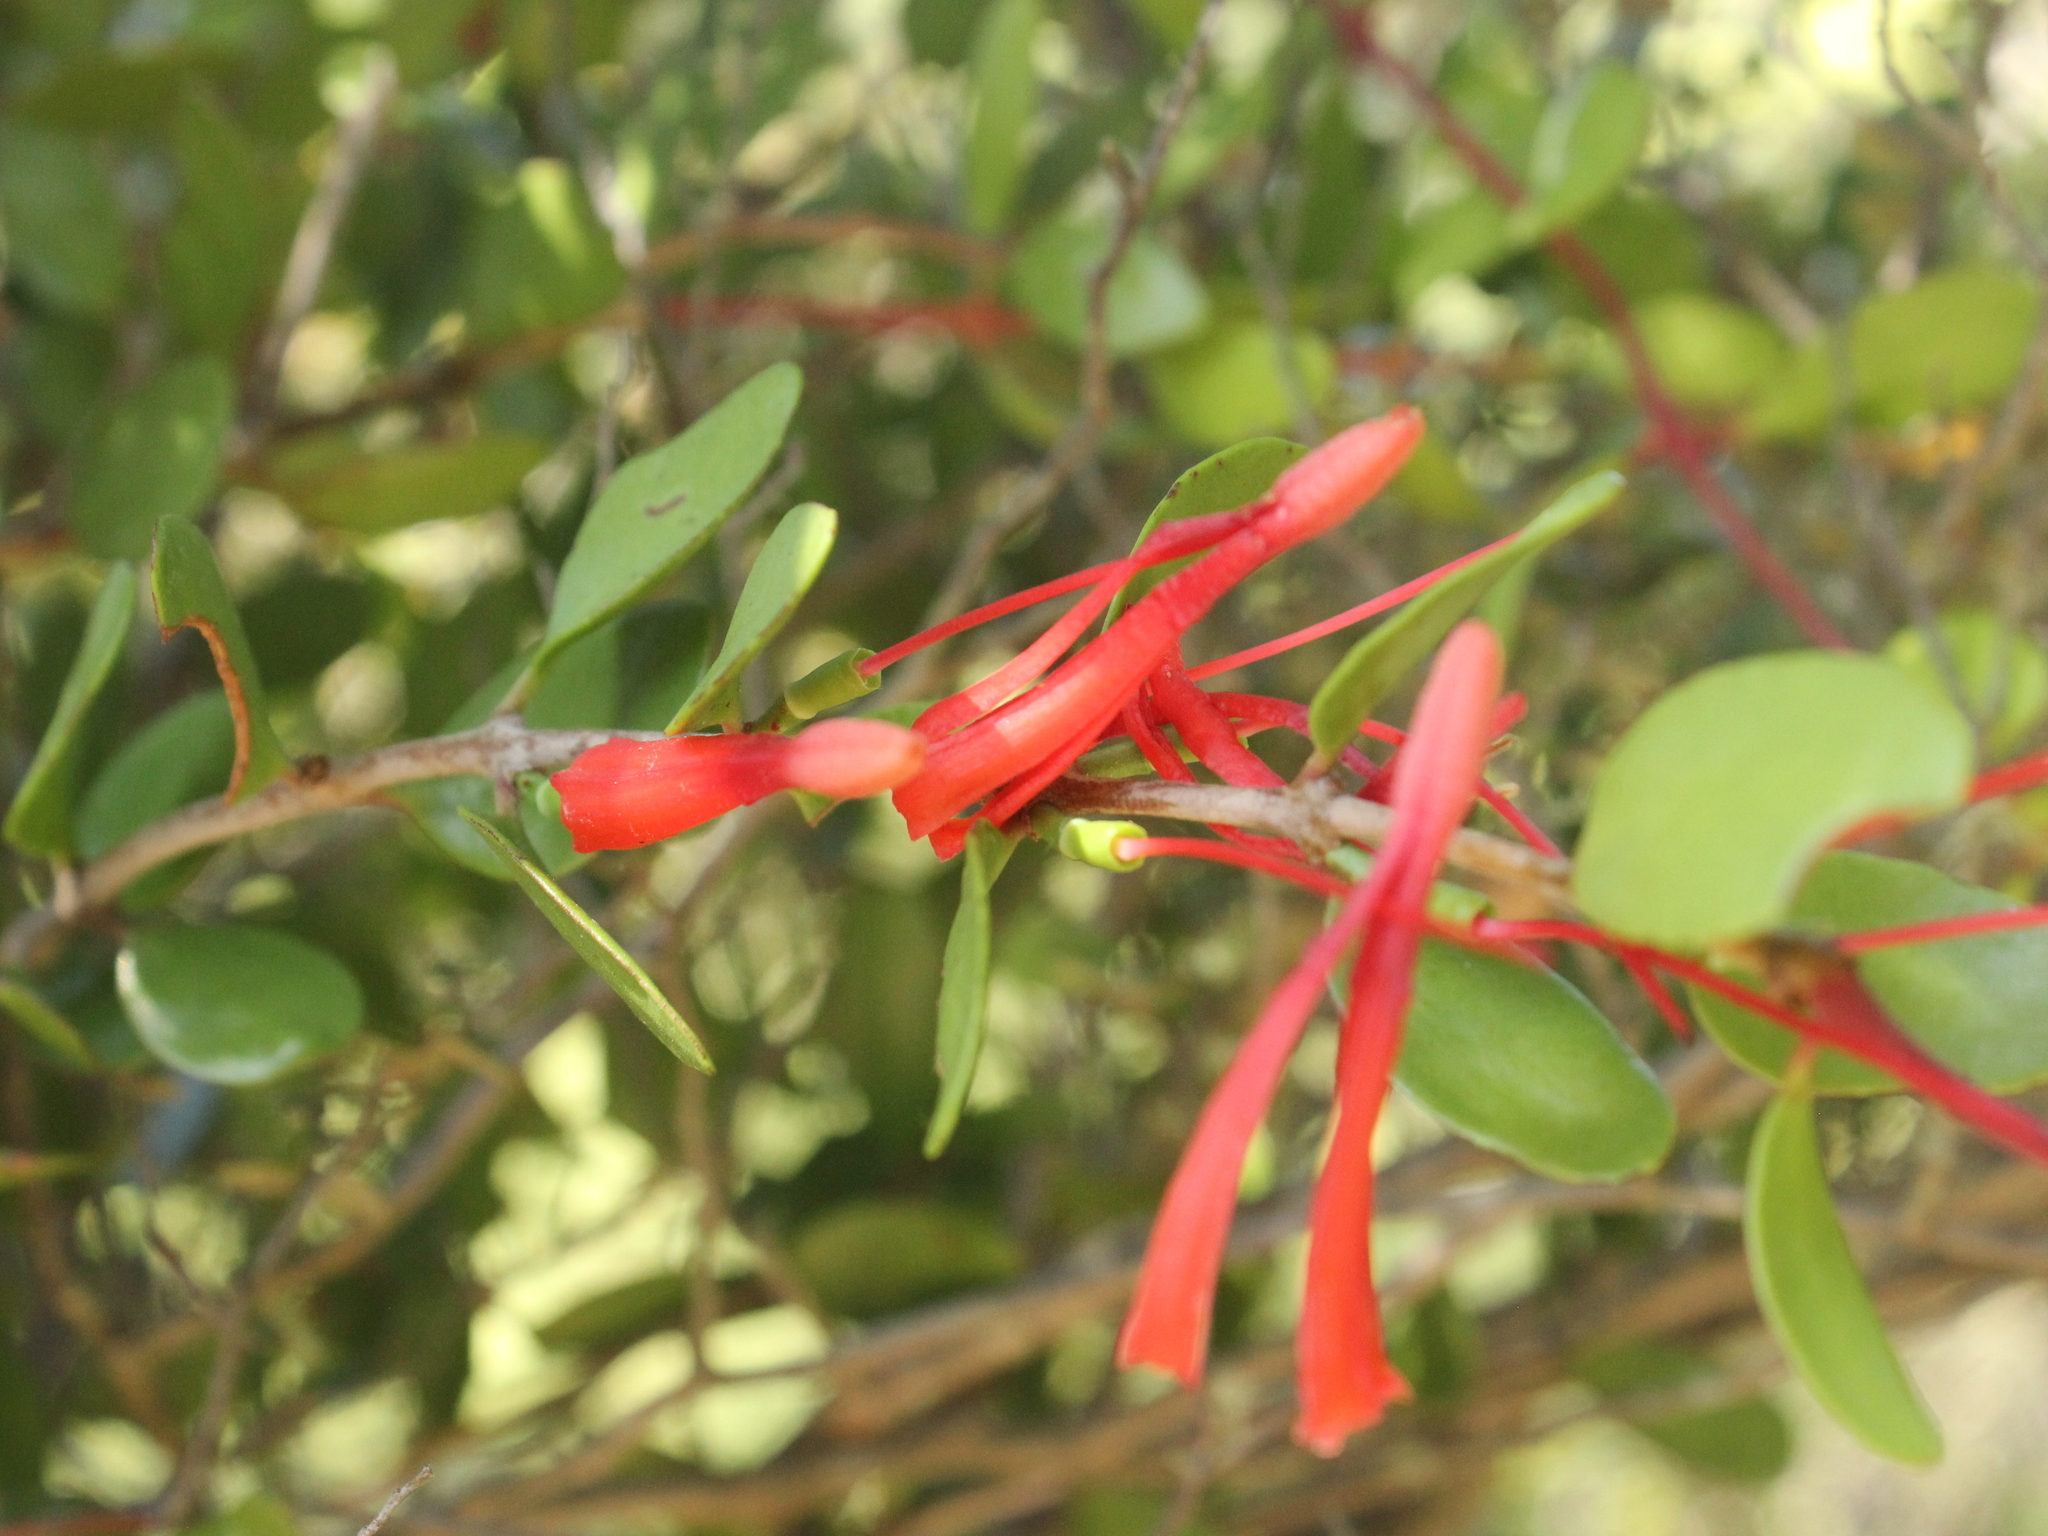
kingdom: Plantae
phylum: Tracheophyta
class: Magnoliopsida
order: Santalales
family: Loranthaceae
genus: Peraxilla
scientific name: Peraxilla tetrapetala
